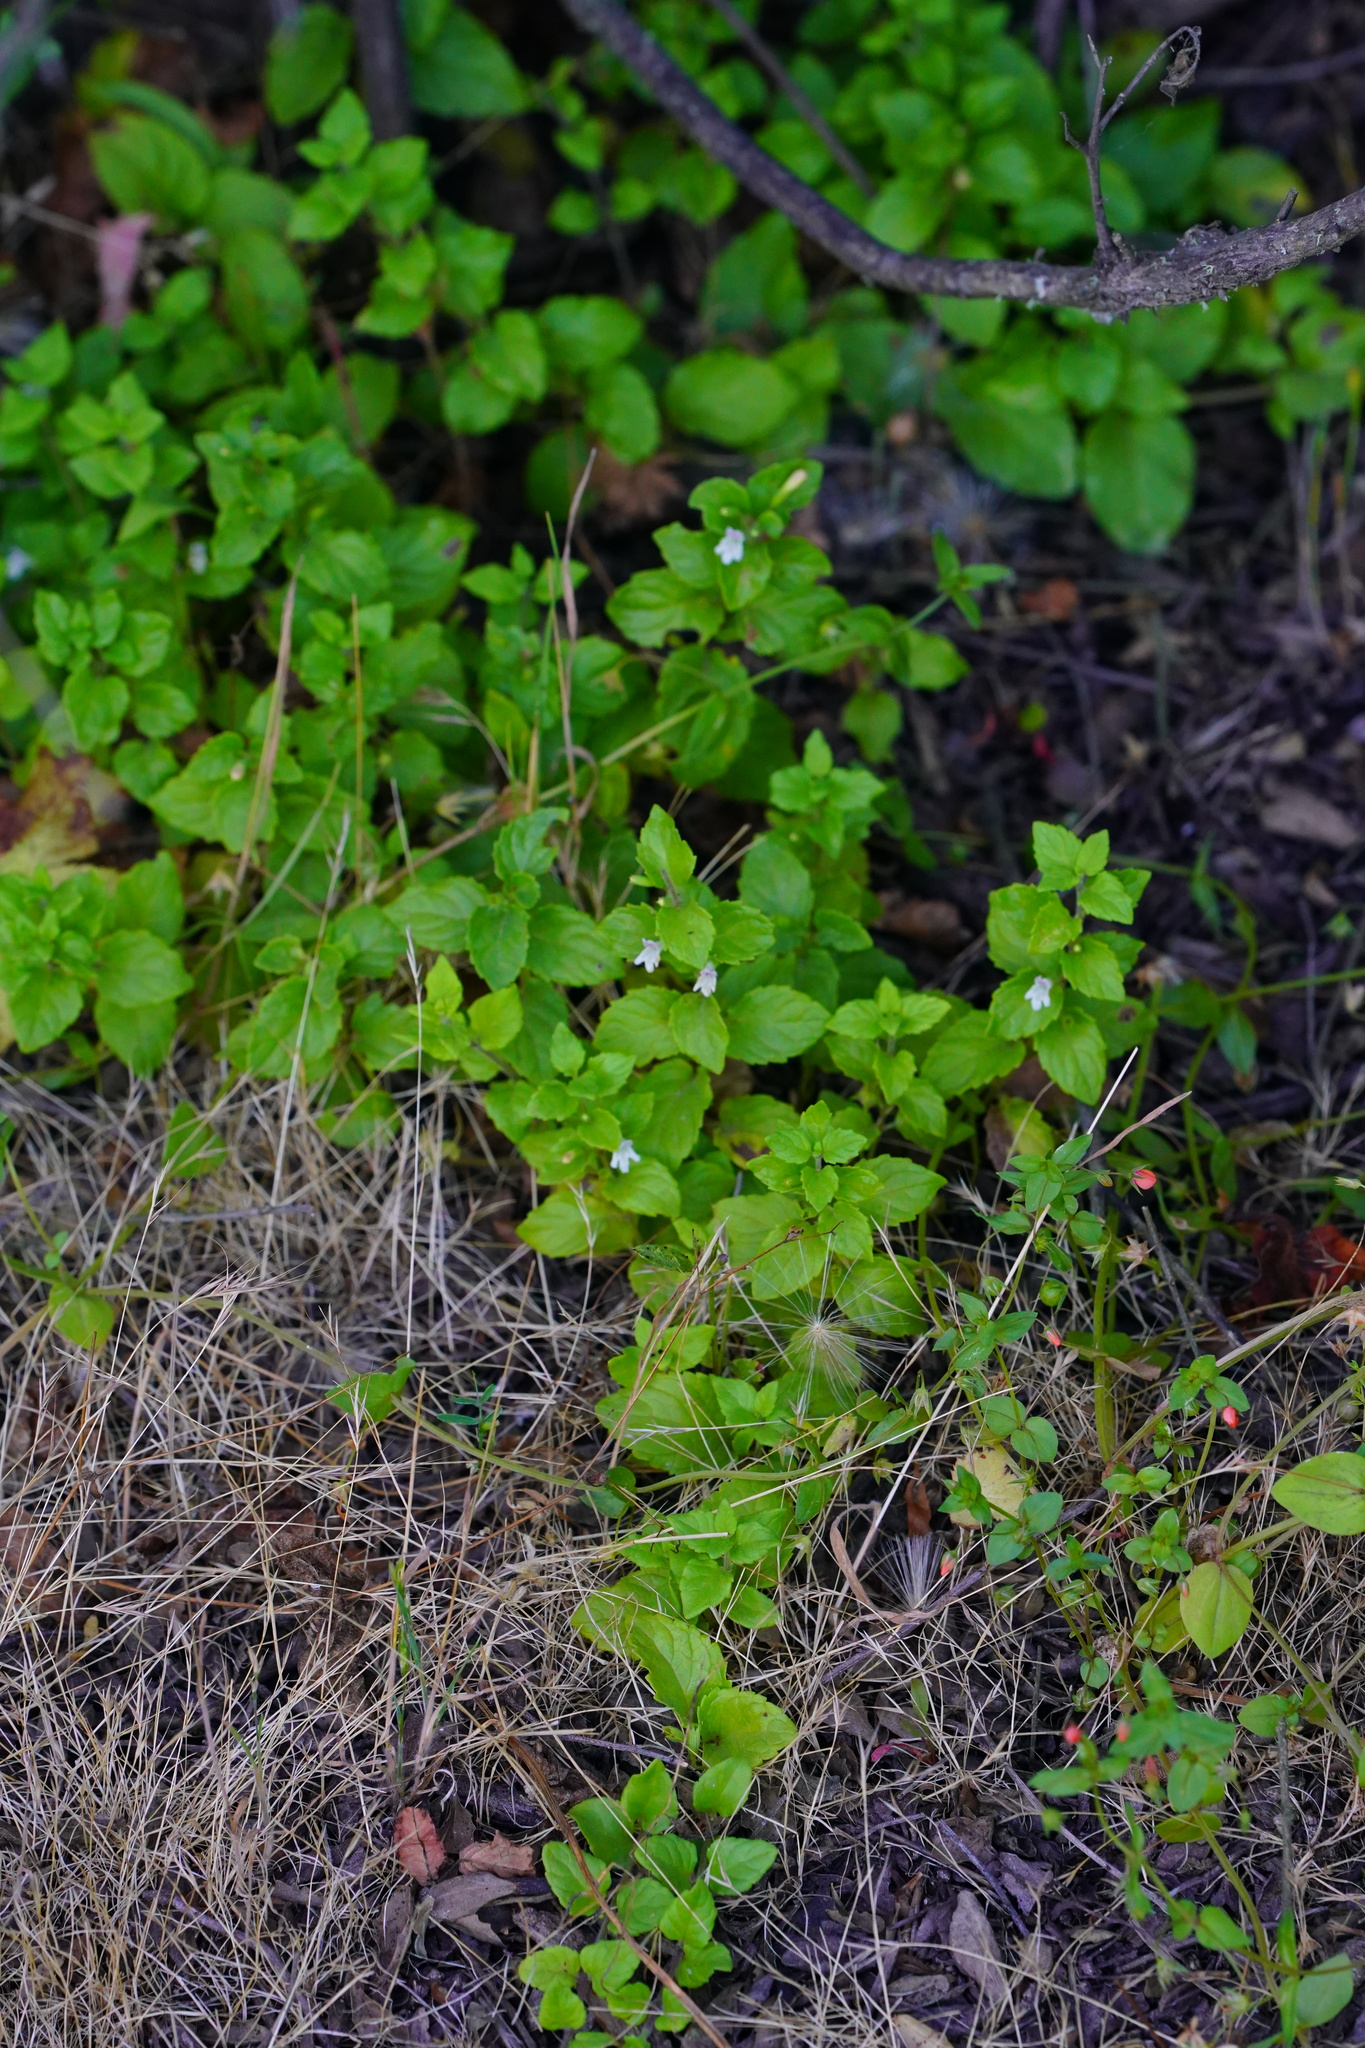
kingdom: Plantae
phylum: Tracheophyta
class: Magnoliopsida
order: Lamiales
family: Lamiaceae
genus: Micromeria
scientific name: Micromeria douglasii
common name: Yerba buena
